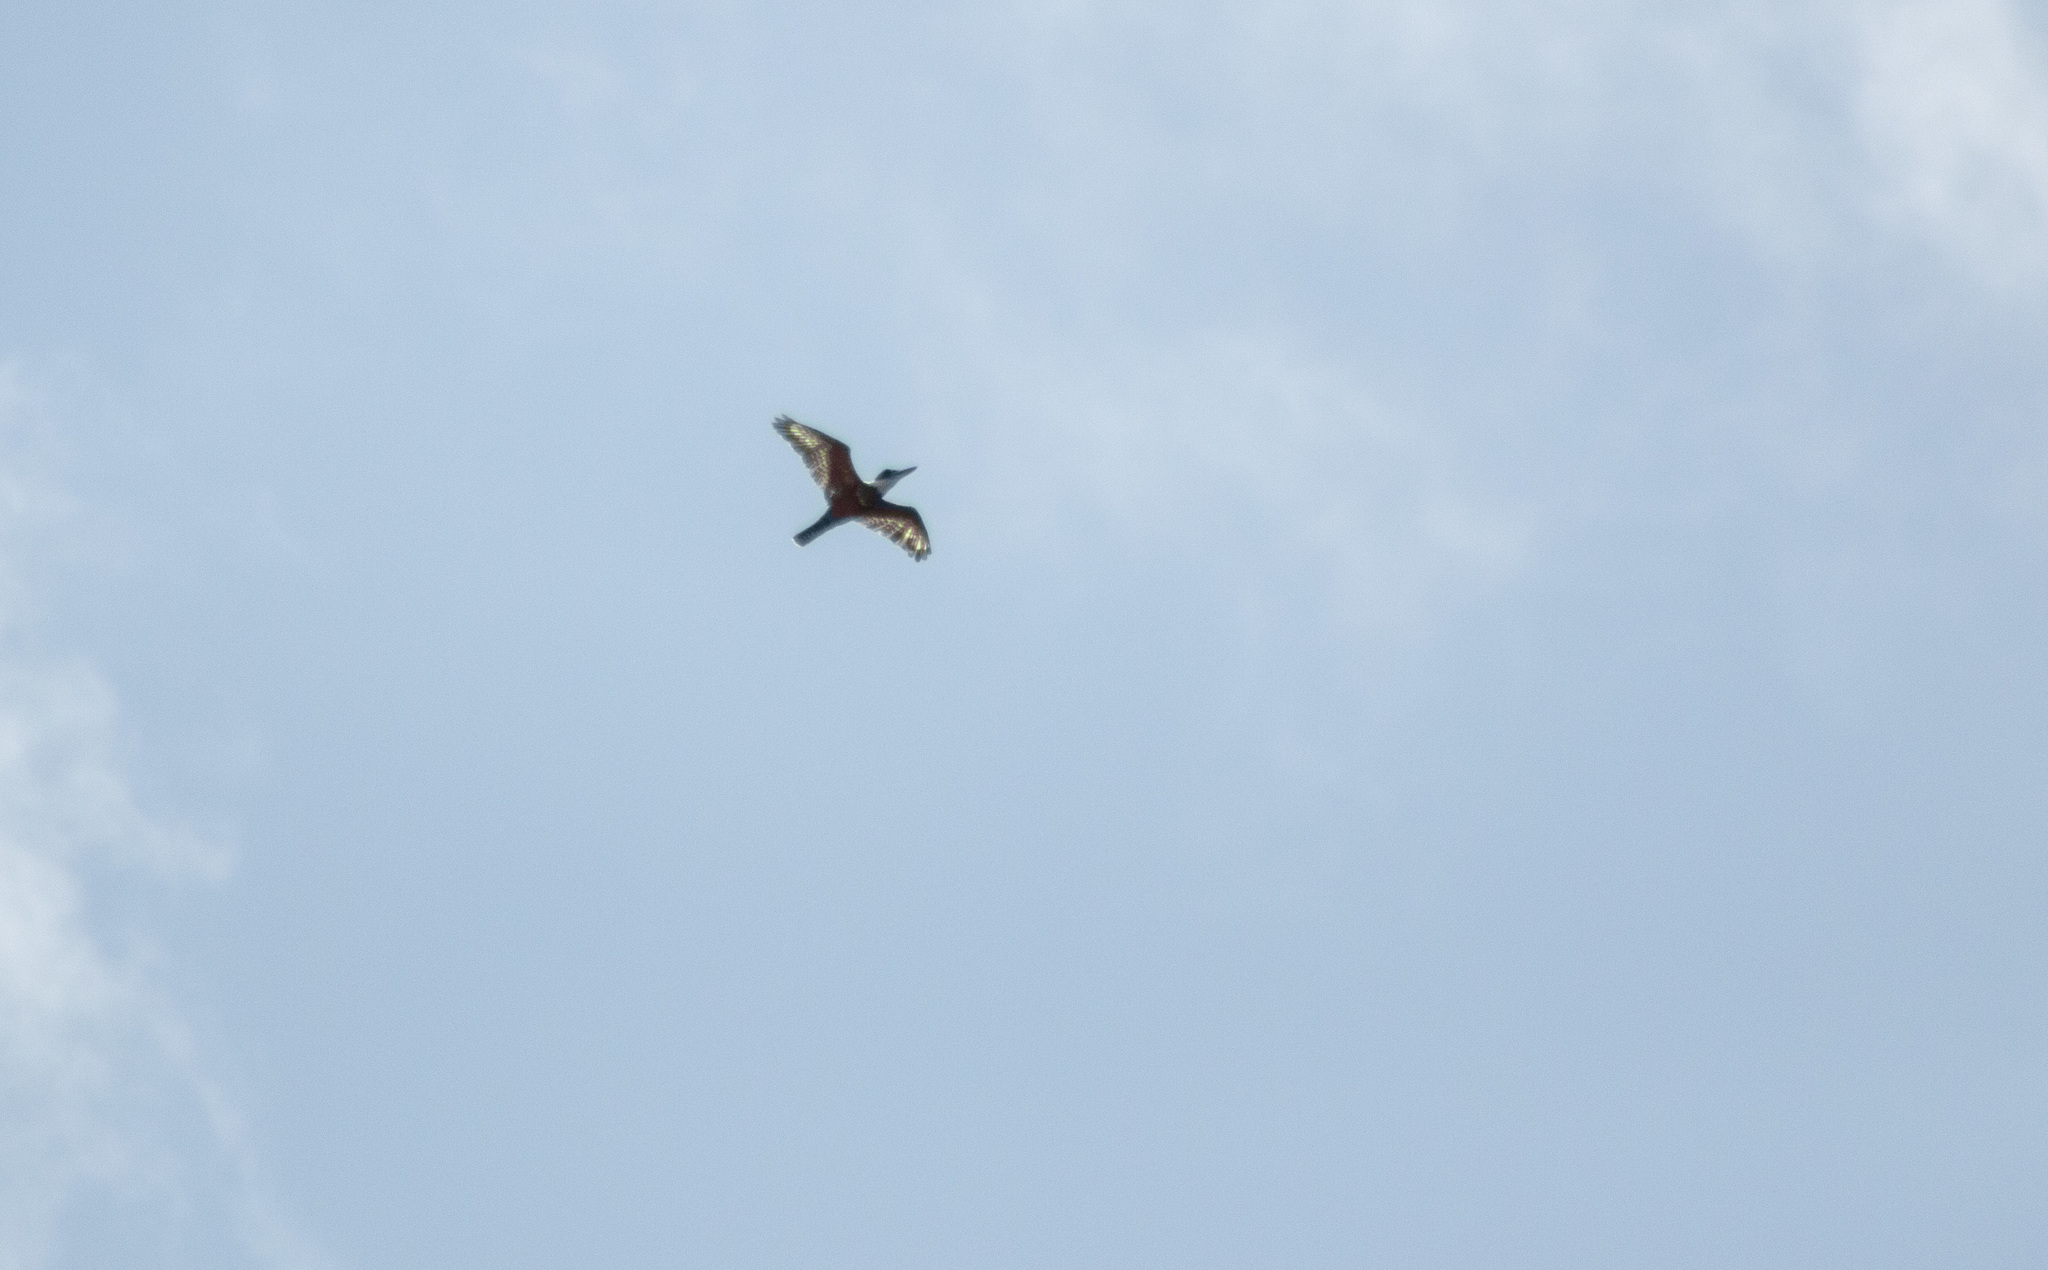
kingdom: Animalia
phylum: Chordata
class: Aves
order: Coraciiformes
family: Alcedinidae
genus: Megaceryle
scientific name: Megaceryle torquata
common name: Ringed kingfisher
